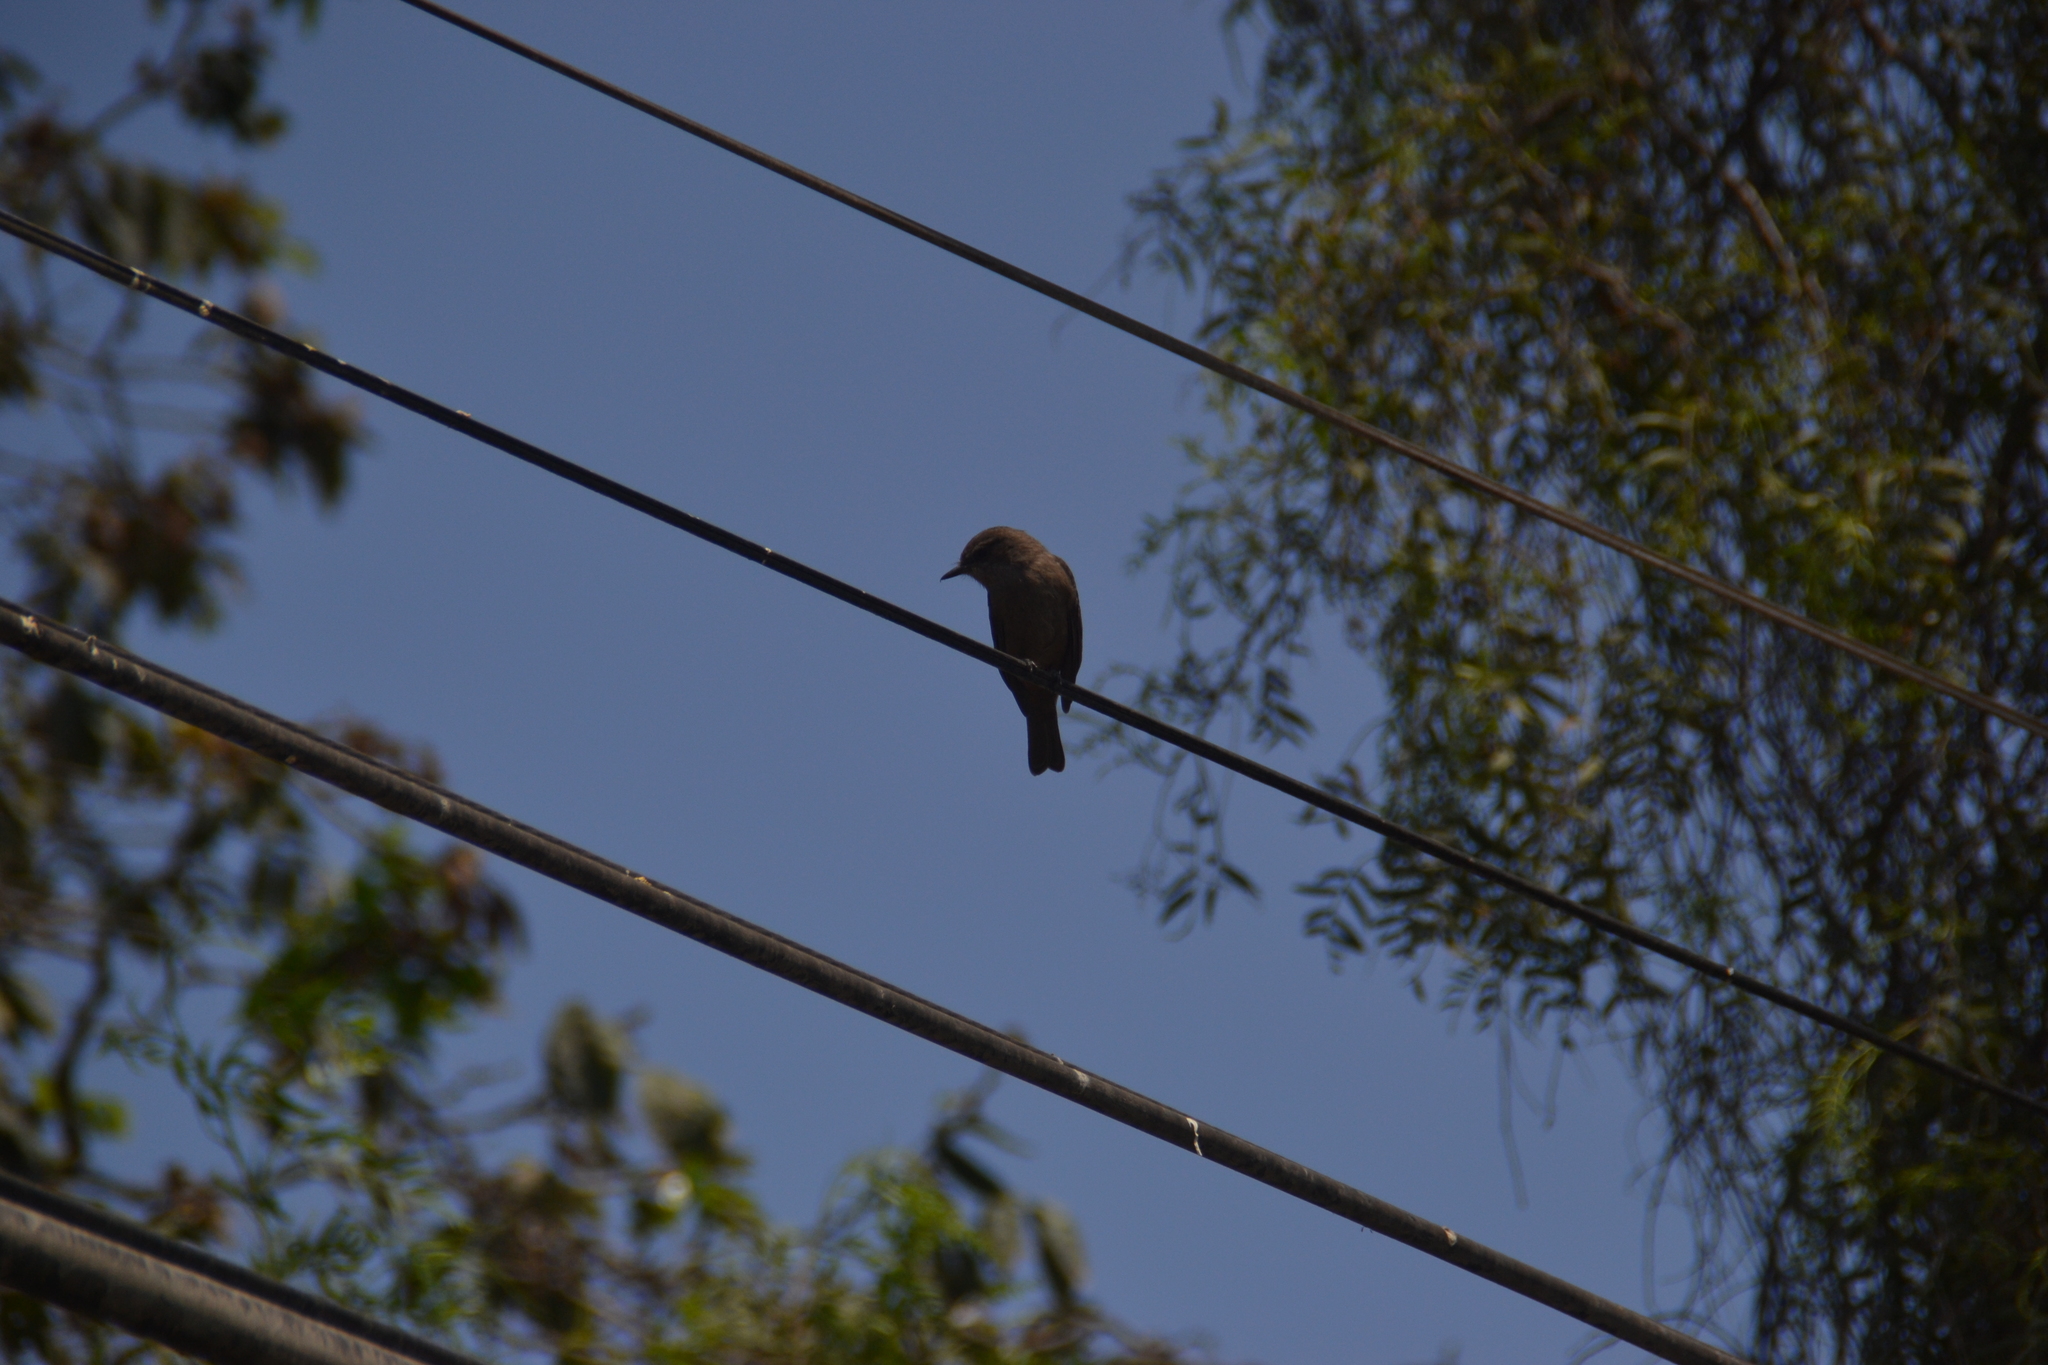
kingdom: Animalia
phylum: Chordata
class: Aves
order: Passeriformes
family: Tyrannidae
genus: Pyrocephalus
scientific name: Pyrocephalus rubinus
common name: Vermilion flycatcher
